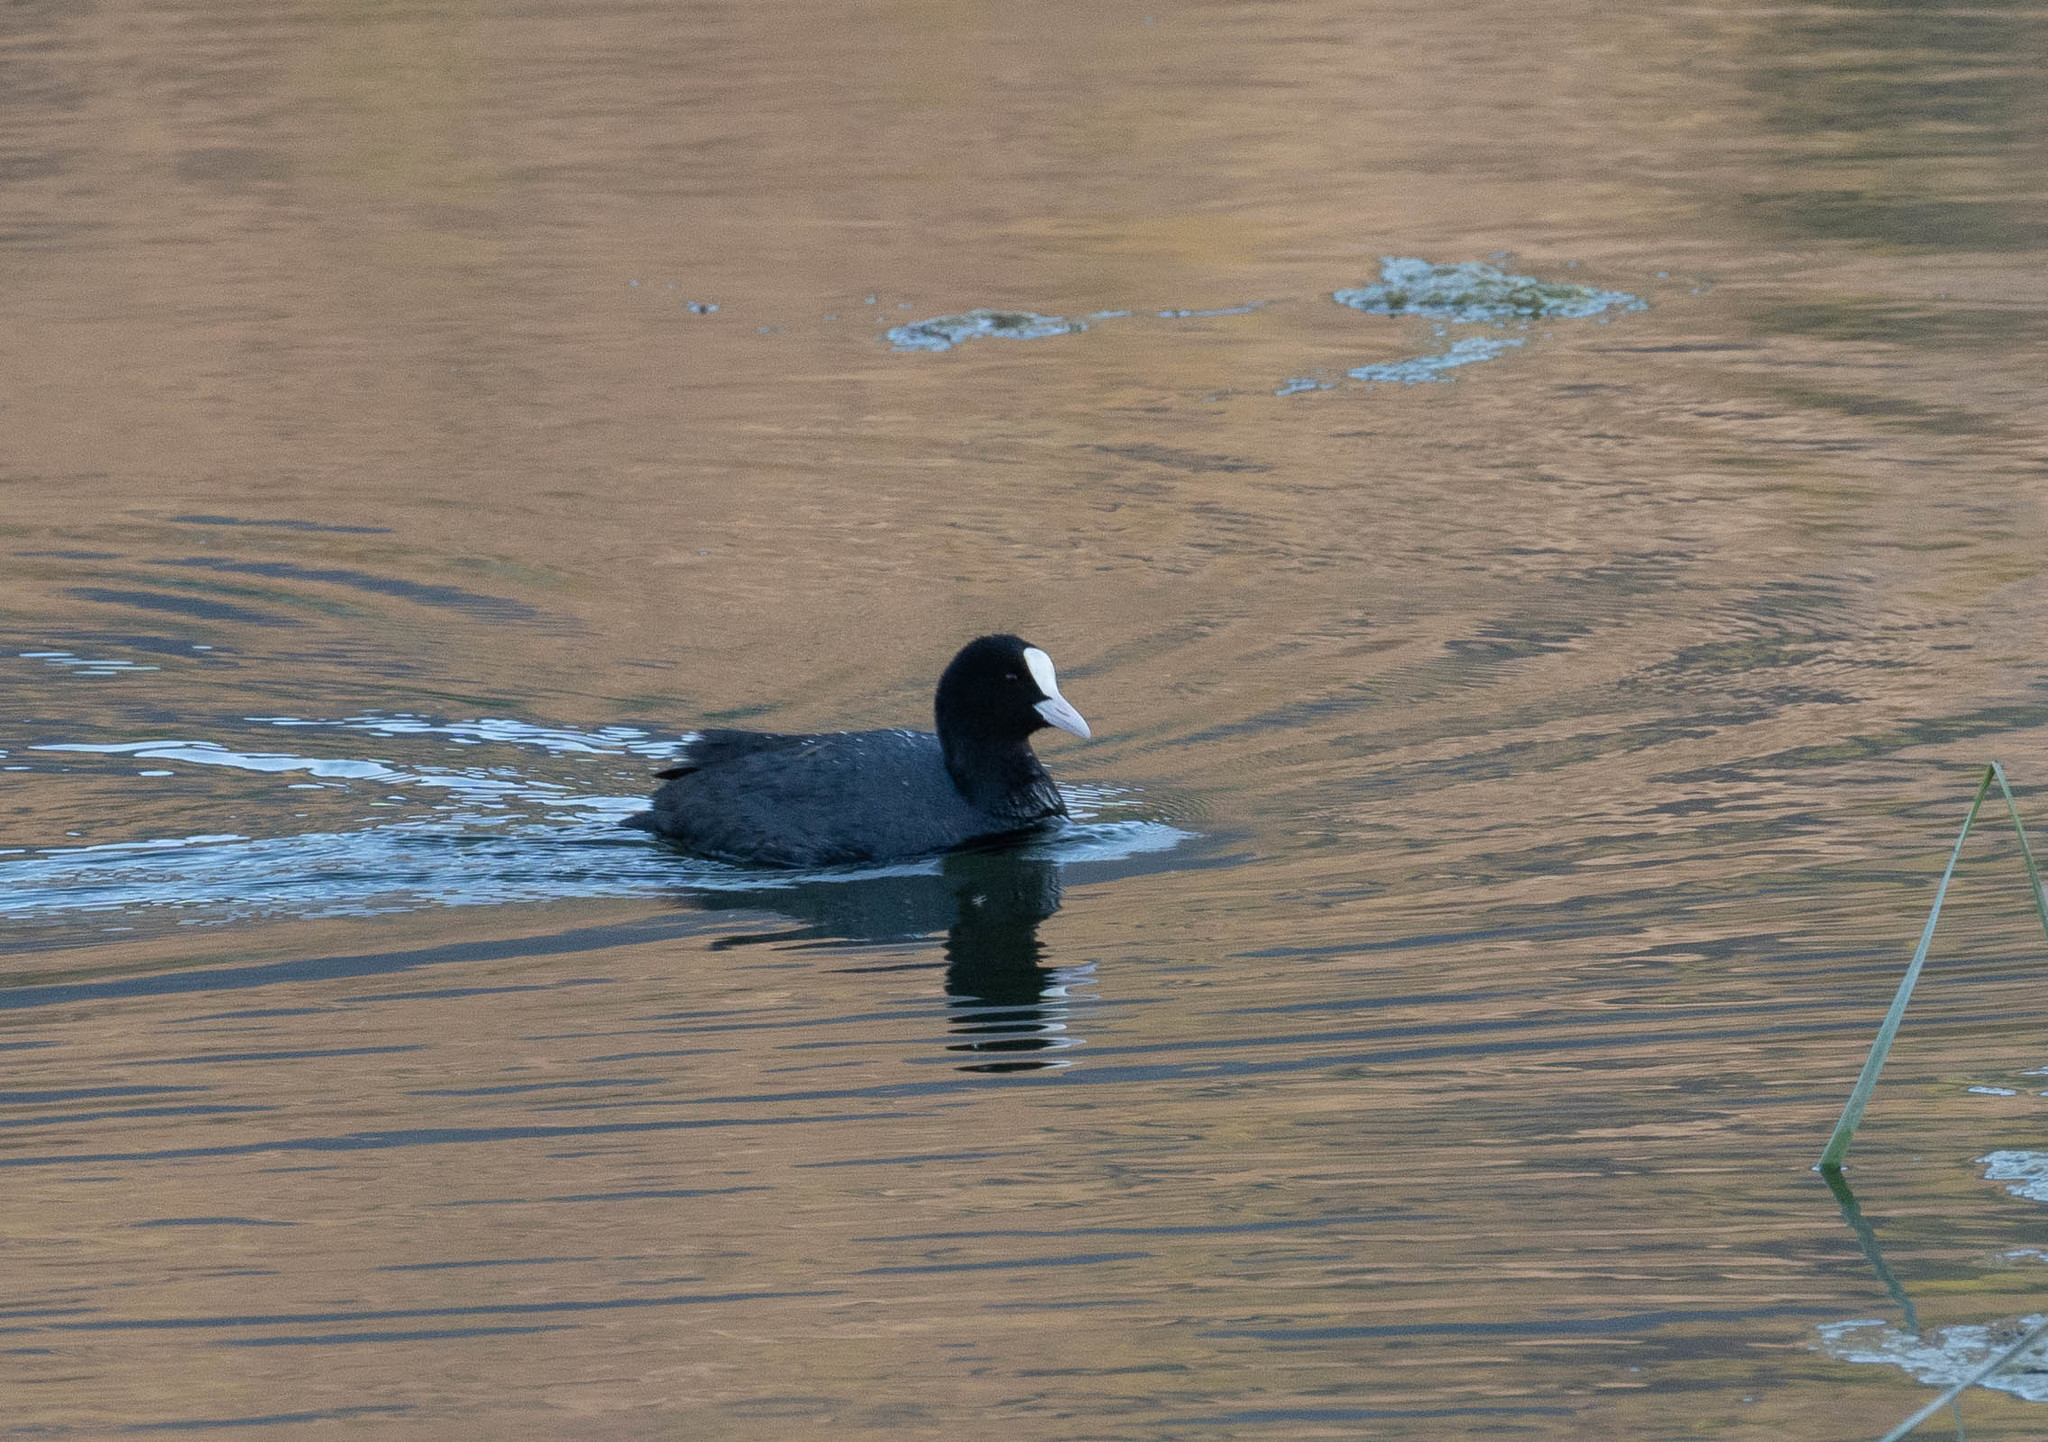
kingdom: Animalia
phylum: Chordata
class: Aves
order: Gruiformes
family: Rallidae
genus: Fulica
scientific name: Fulica atra
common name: Eurasian coot
